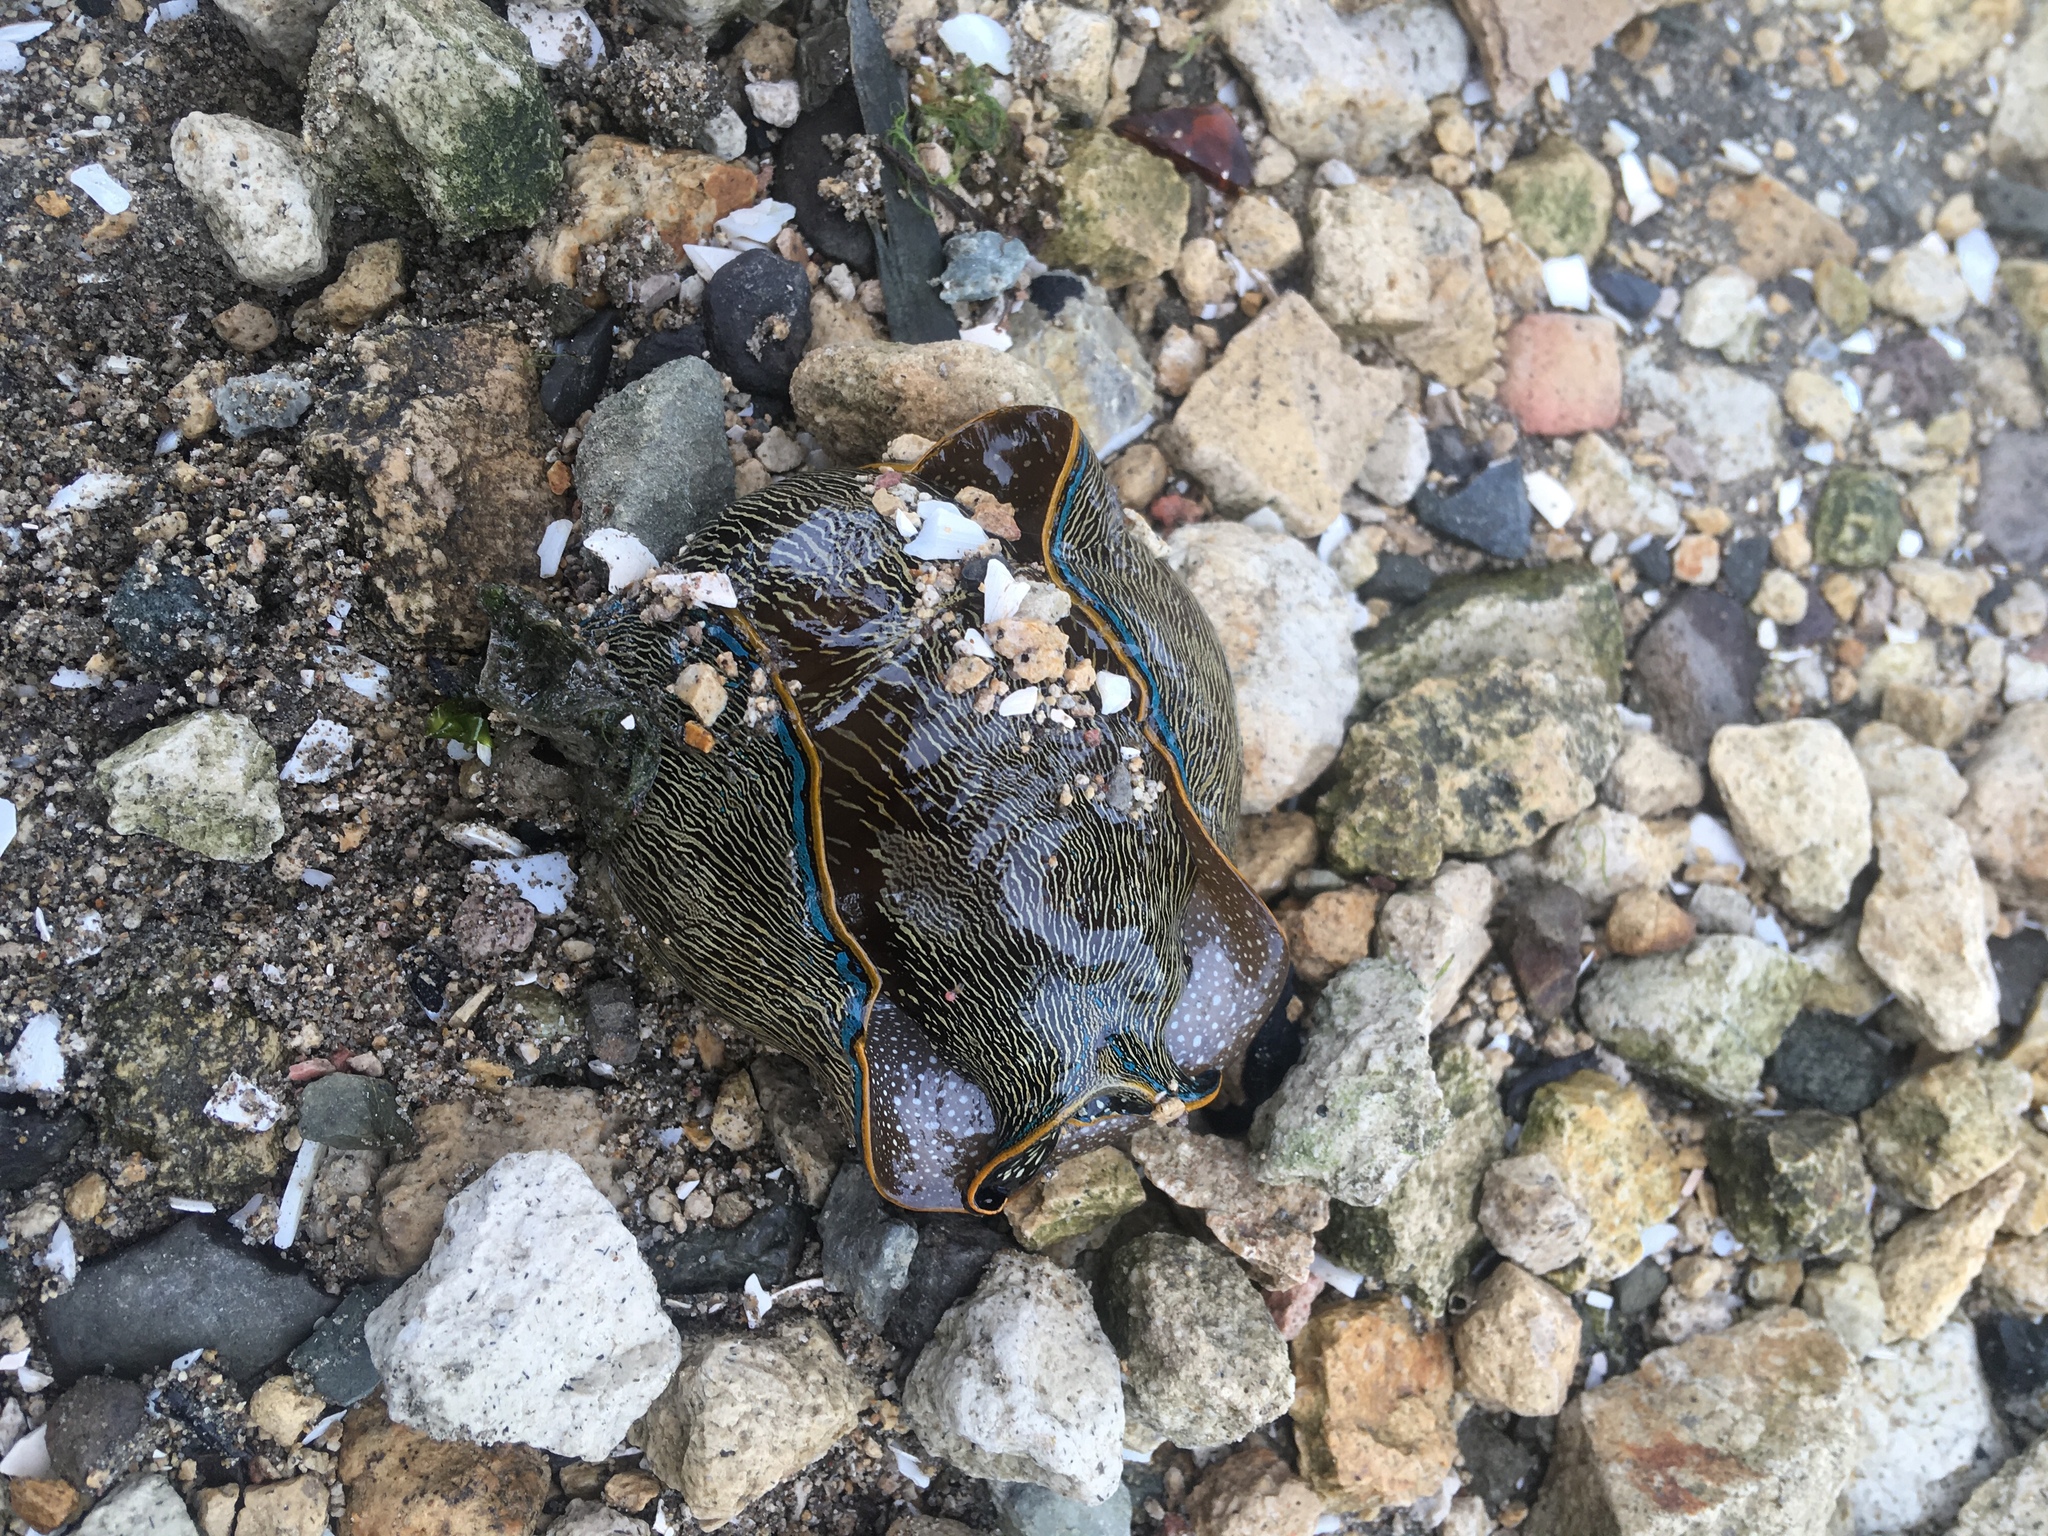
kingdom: Animalia
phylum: Mollusca
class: Gastropoda
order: Cephalaspidea
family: Aglajidae
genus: Navanax
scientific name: Navanax inermis
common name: California aglaja
